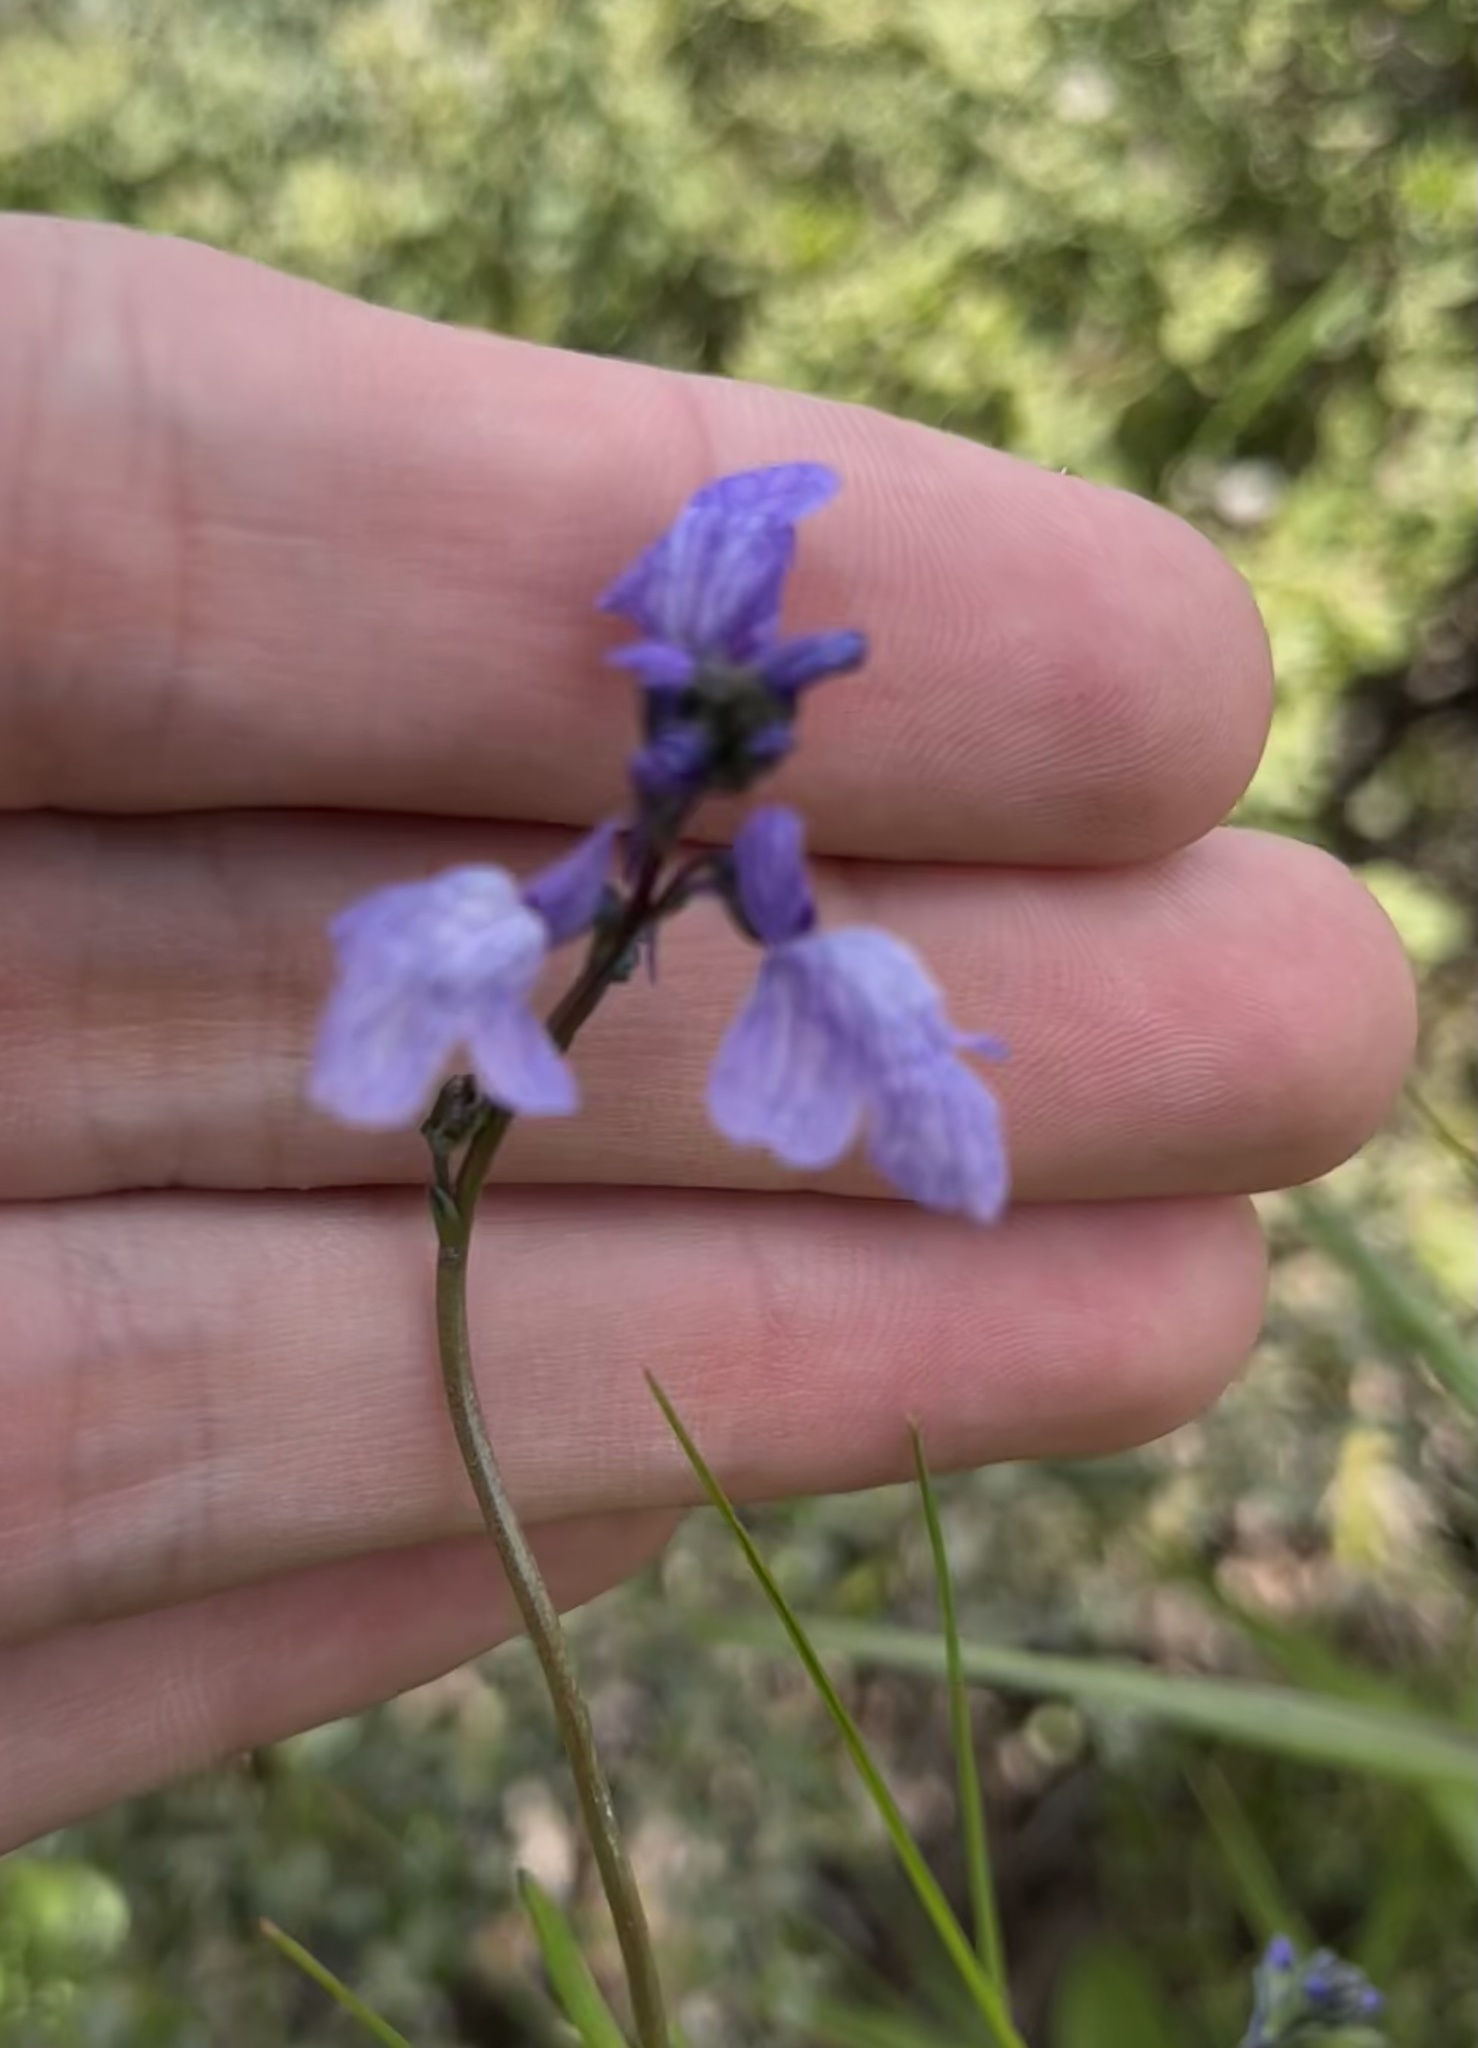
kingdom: Plantae
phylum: Tracheophyta
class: Magnoliopsida
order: Lamiales
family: Plantaginaceae
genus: Nuttallanthus
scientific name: Nuttallanthus texanus
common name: Texas toadflax
